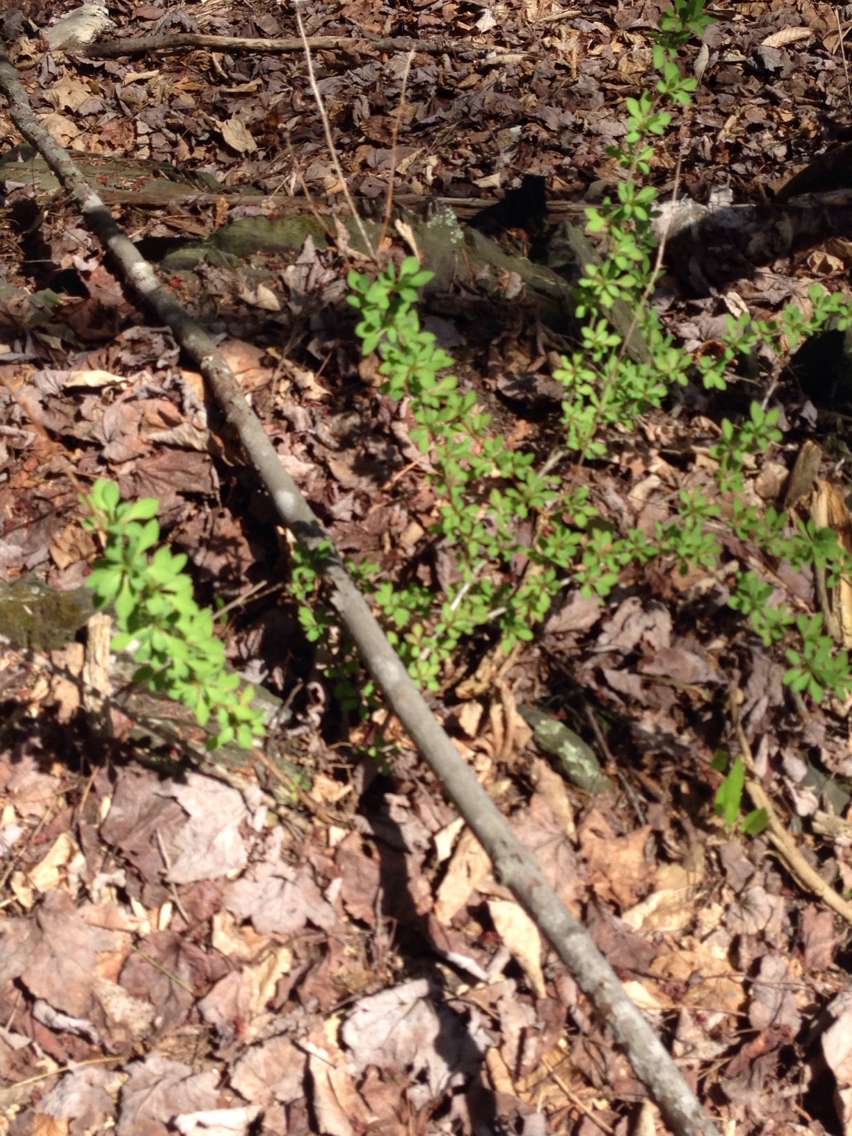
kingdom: Plantae
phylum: Tracheophyta
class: Magnoliopsida
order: Ranunculales
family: Berberidaceae
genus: Berberis
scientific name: Berberis thunbergii
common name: Japanese barberry
